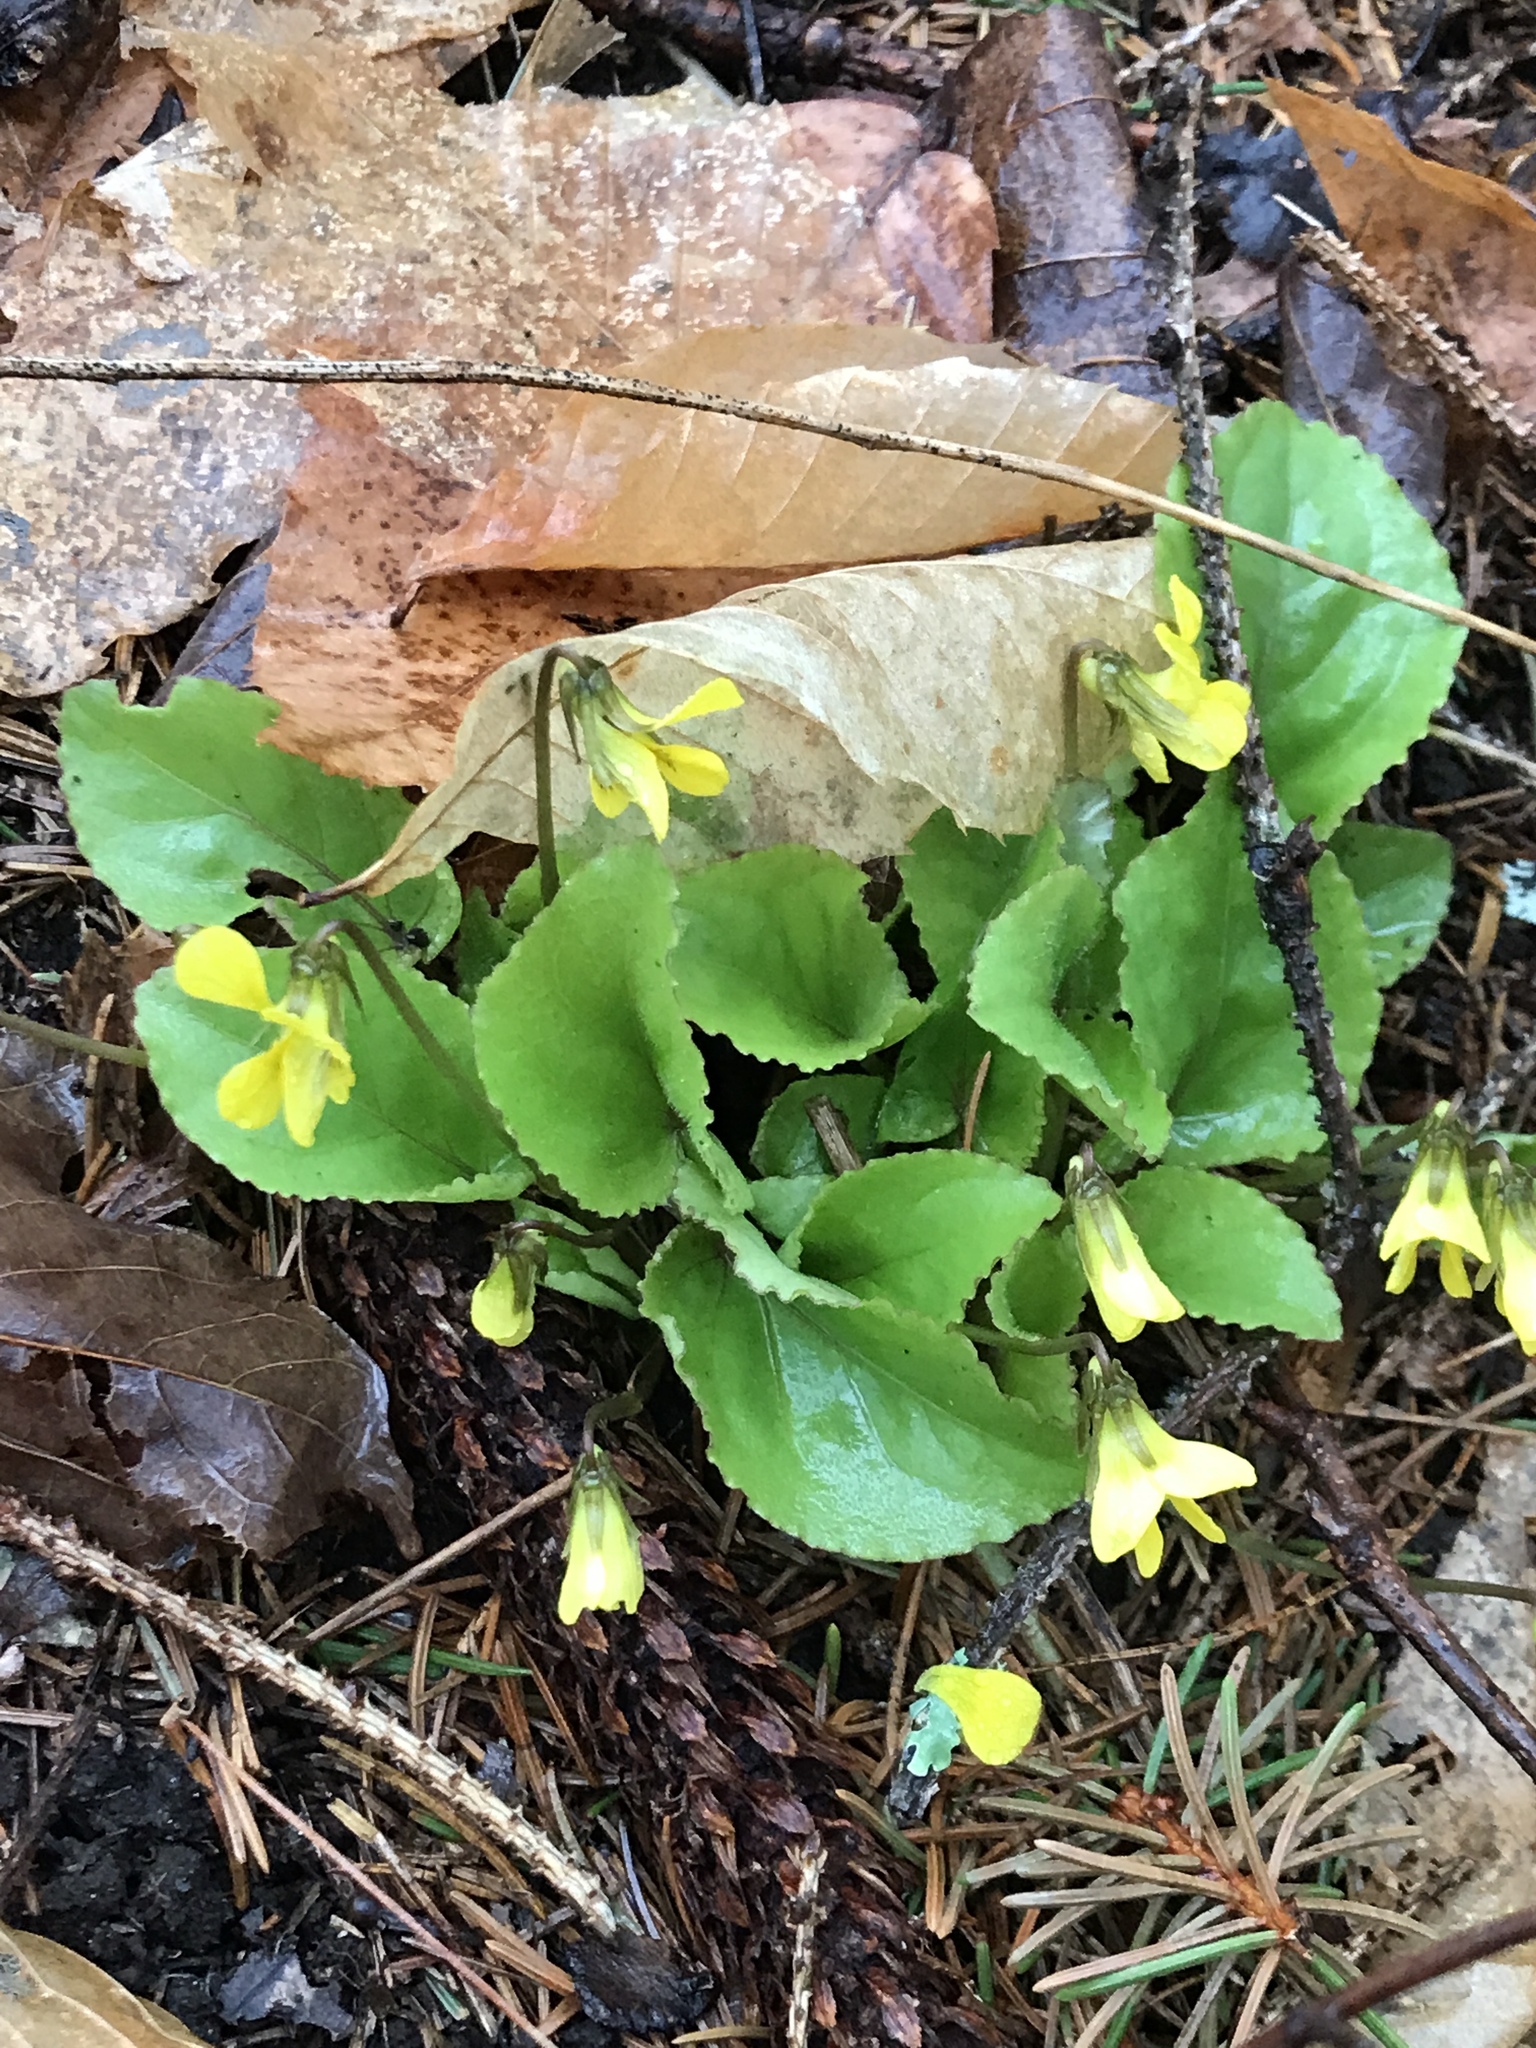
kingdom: Plantae
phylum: Tracheophyta
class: Magnoliopsida
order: Malpighiales
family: Violaceae
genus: Viola
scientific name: Viola rotundifolia
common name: Early yellow violet
